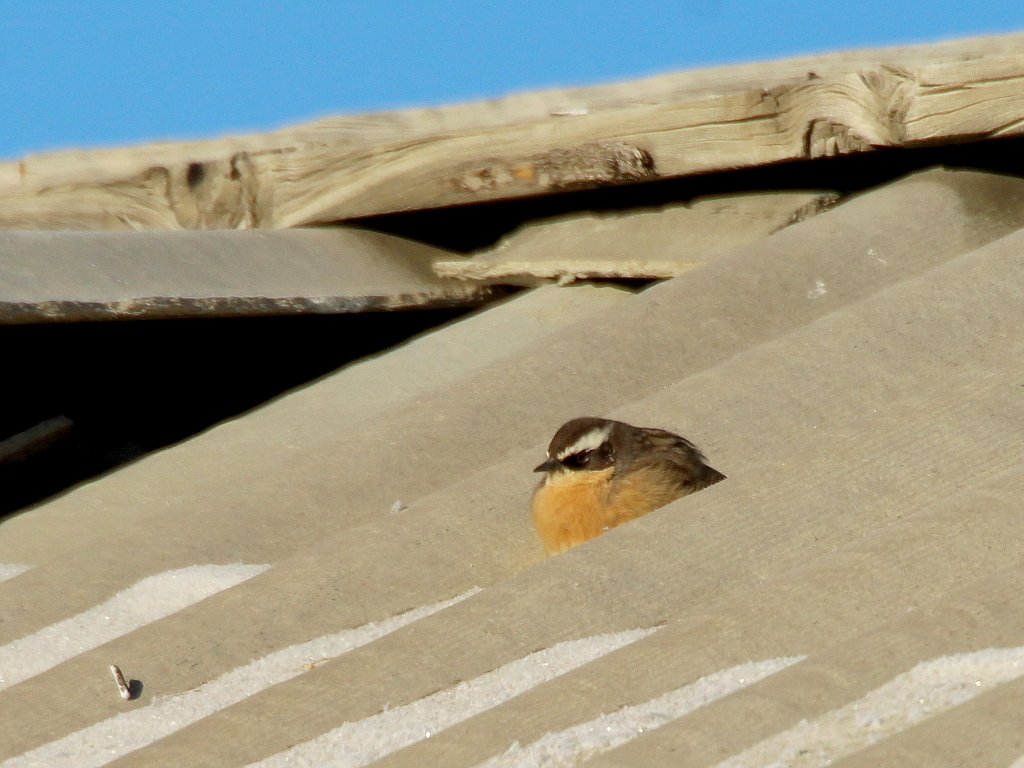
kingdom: Animalia
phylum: Chordata
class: Aves
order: Passeriformes
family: Prunellidae
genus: Prunella
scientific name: Prunella fulvescens
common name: Brown accentor
